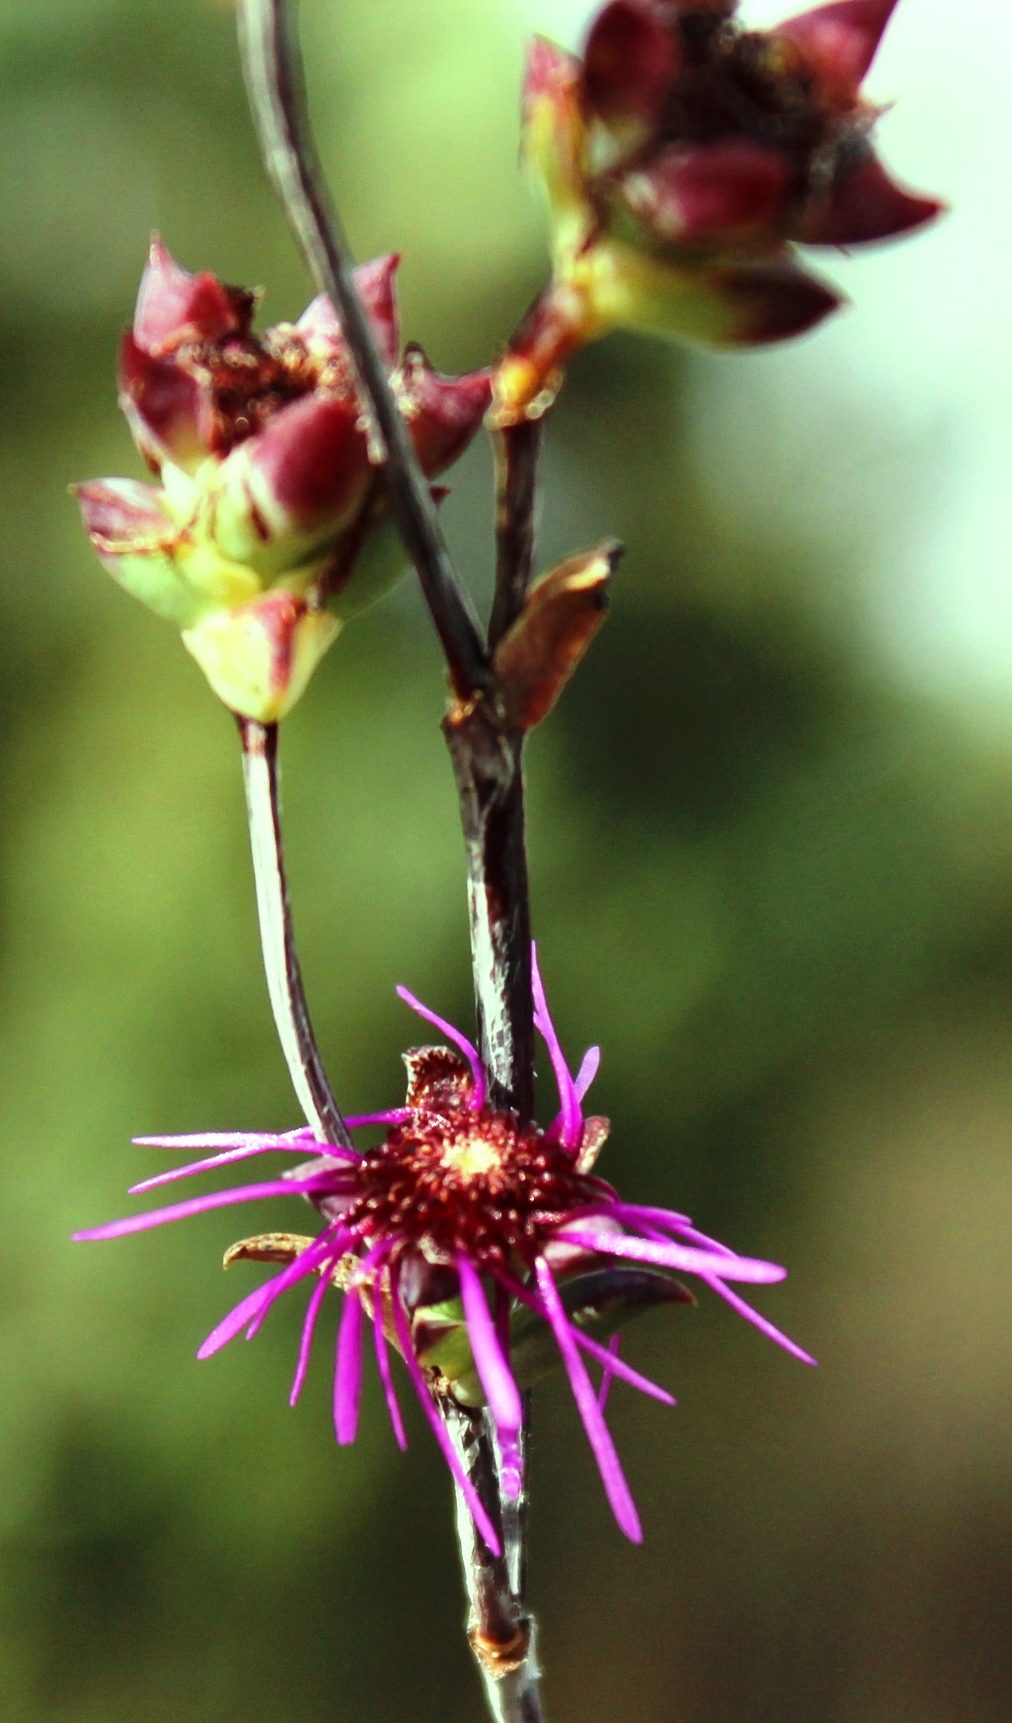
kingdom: Plantae
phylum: Tracheophyta
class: Magnoliopsida
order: Caryophyllales
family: Aizoaceae
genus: Erepsia
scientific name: Erepsia saturata
